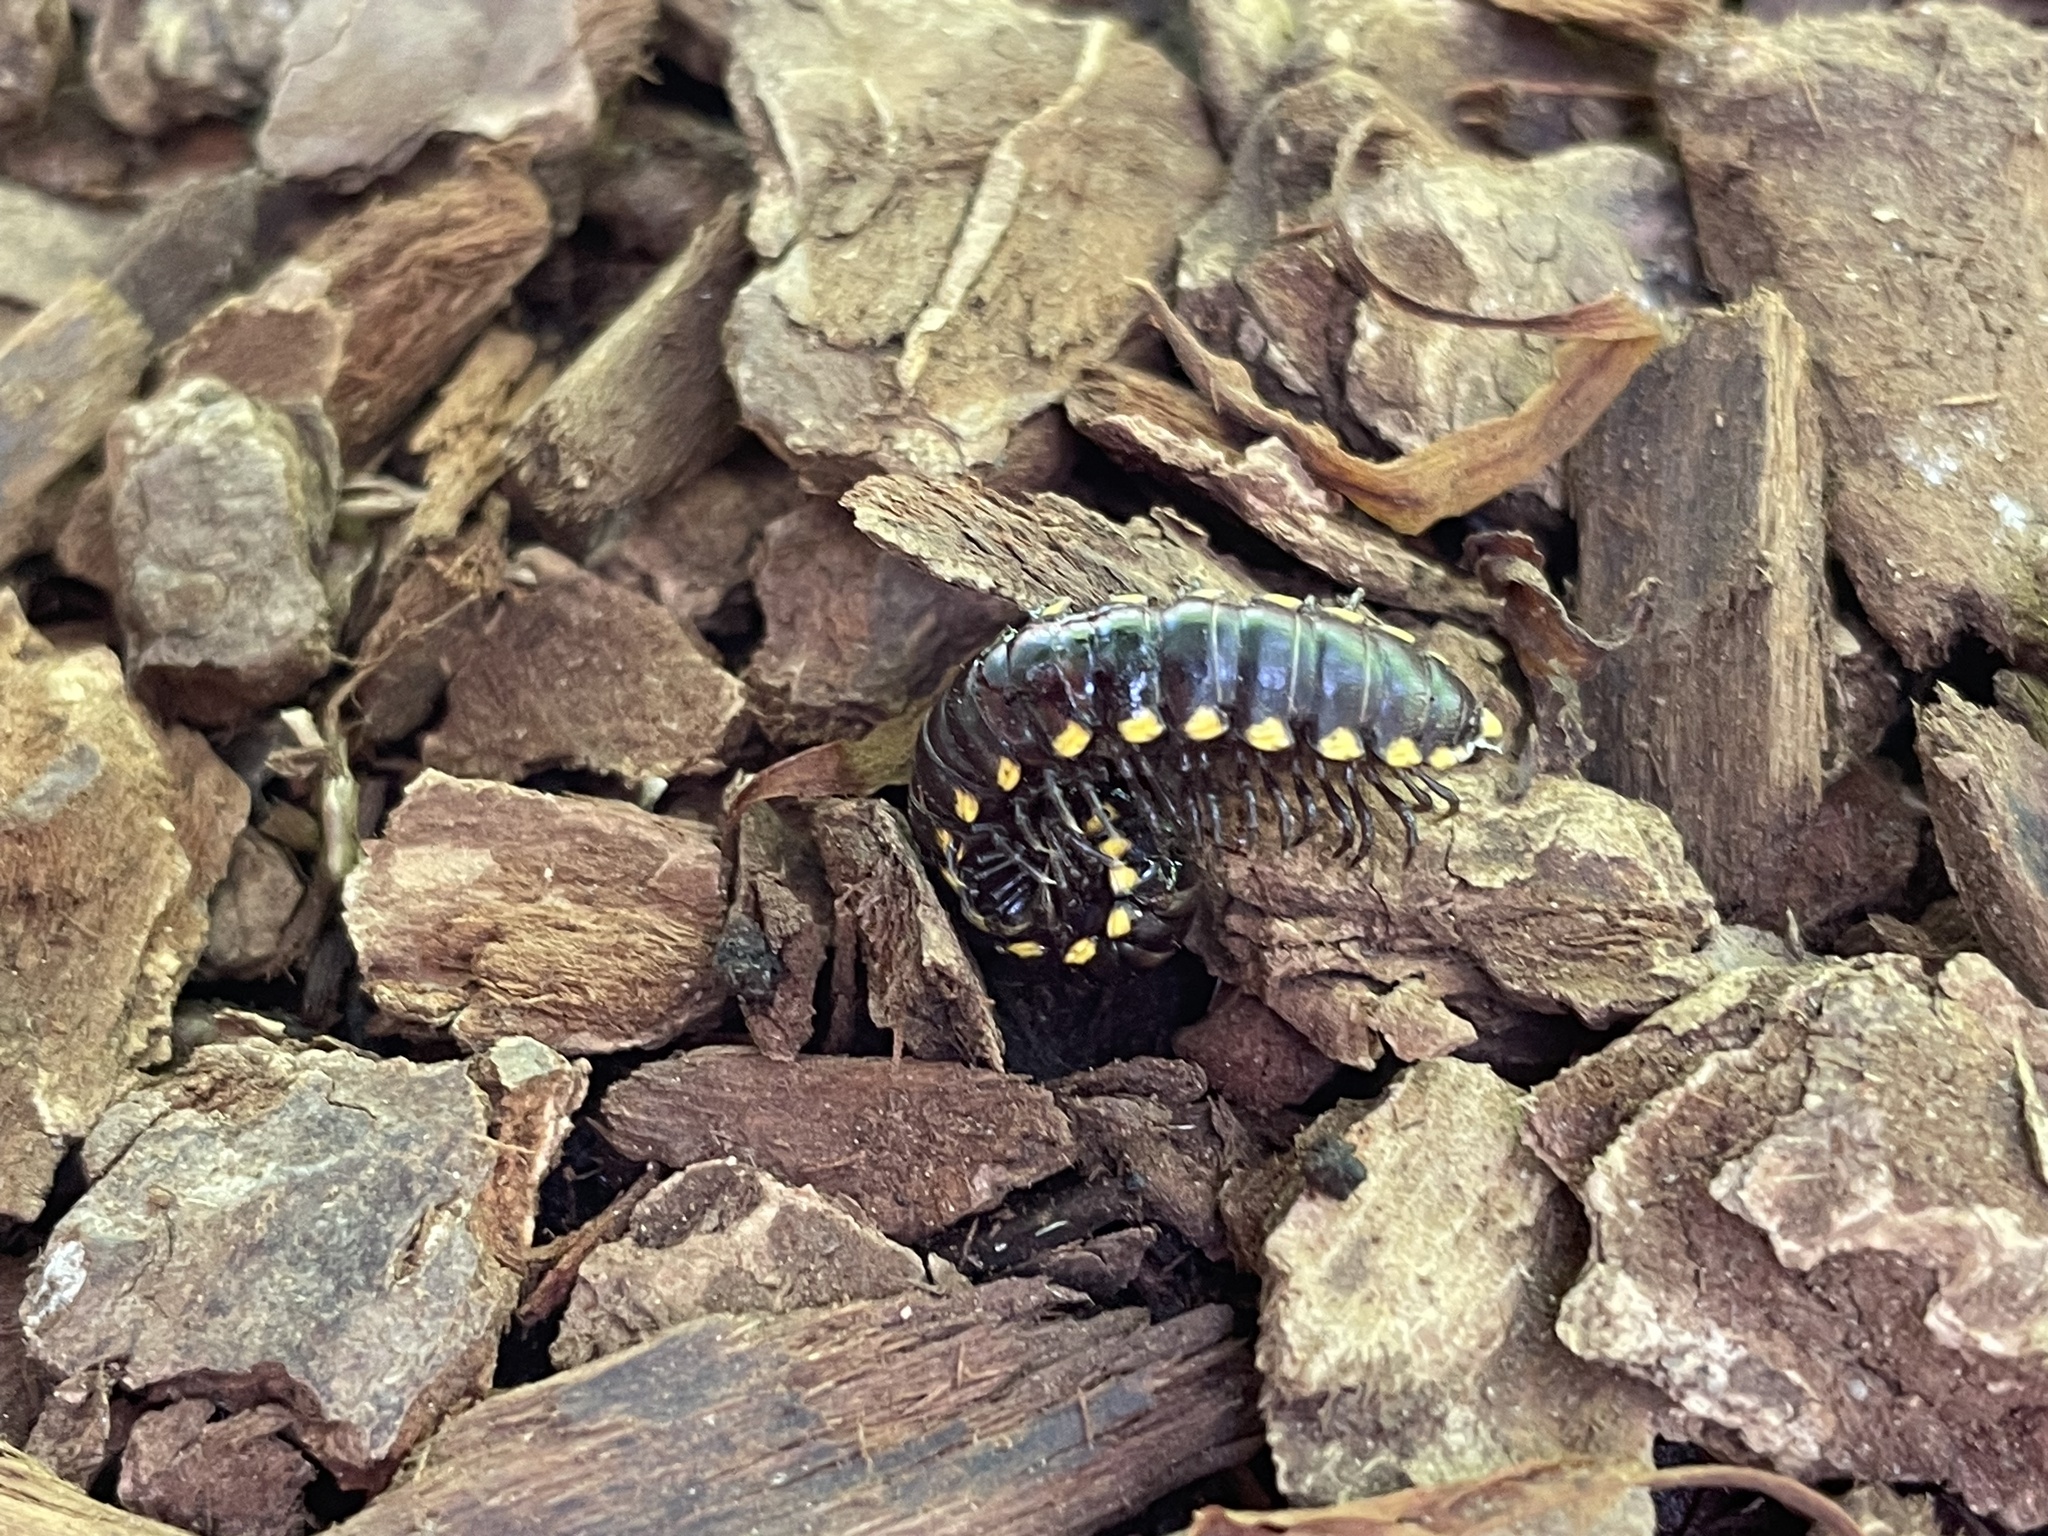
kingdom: Animalia
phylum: Arthropoda
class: Diplopoda
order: Polydesmida
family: Xystodesmidae
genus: Harpaphe
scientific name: Harpaphe haydeniana
